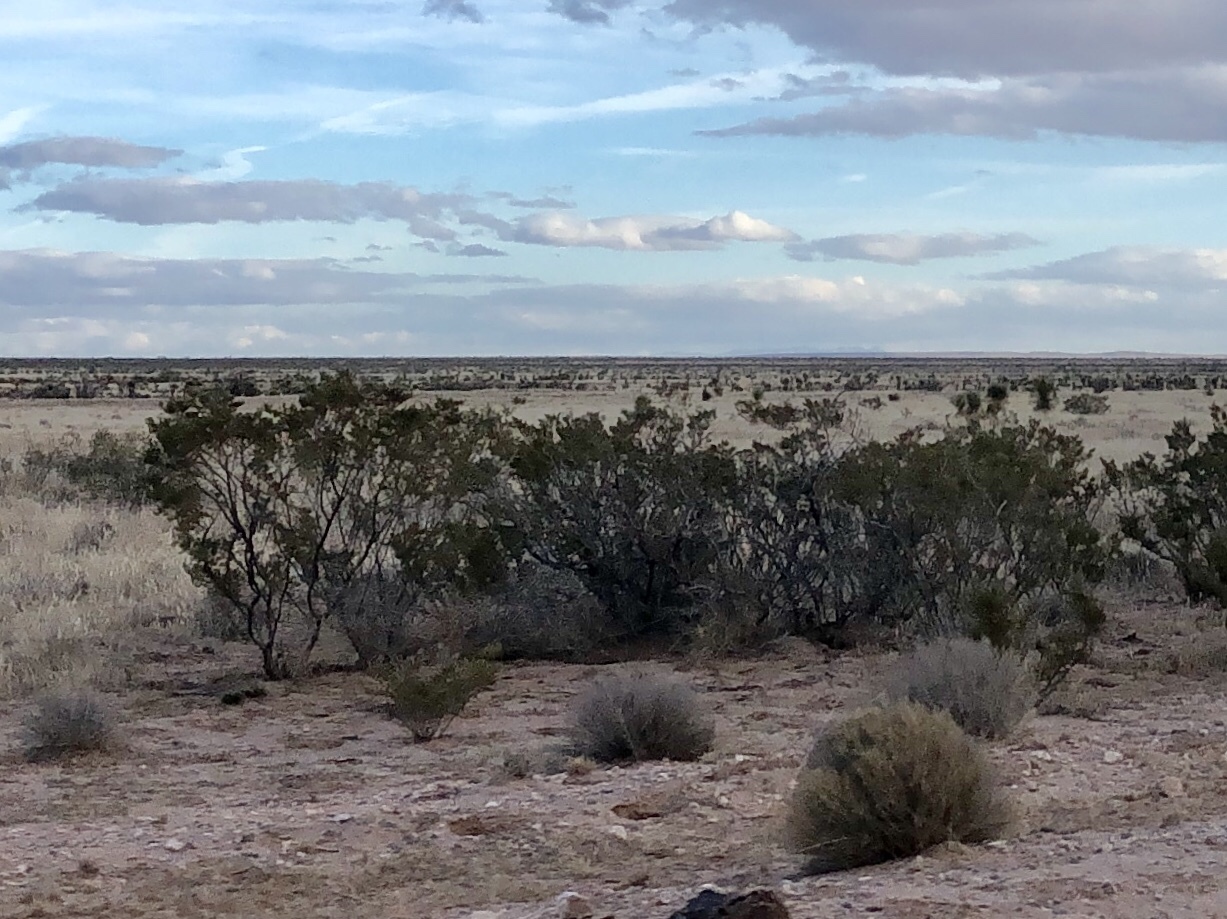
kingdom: Plantae
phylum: Tracheophyta
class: Magnoliopsida
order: Zygophyllales
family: Zygophyllaceae
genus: Larrea
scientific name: Larrea tridentata
